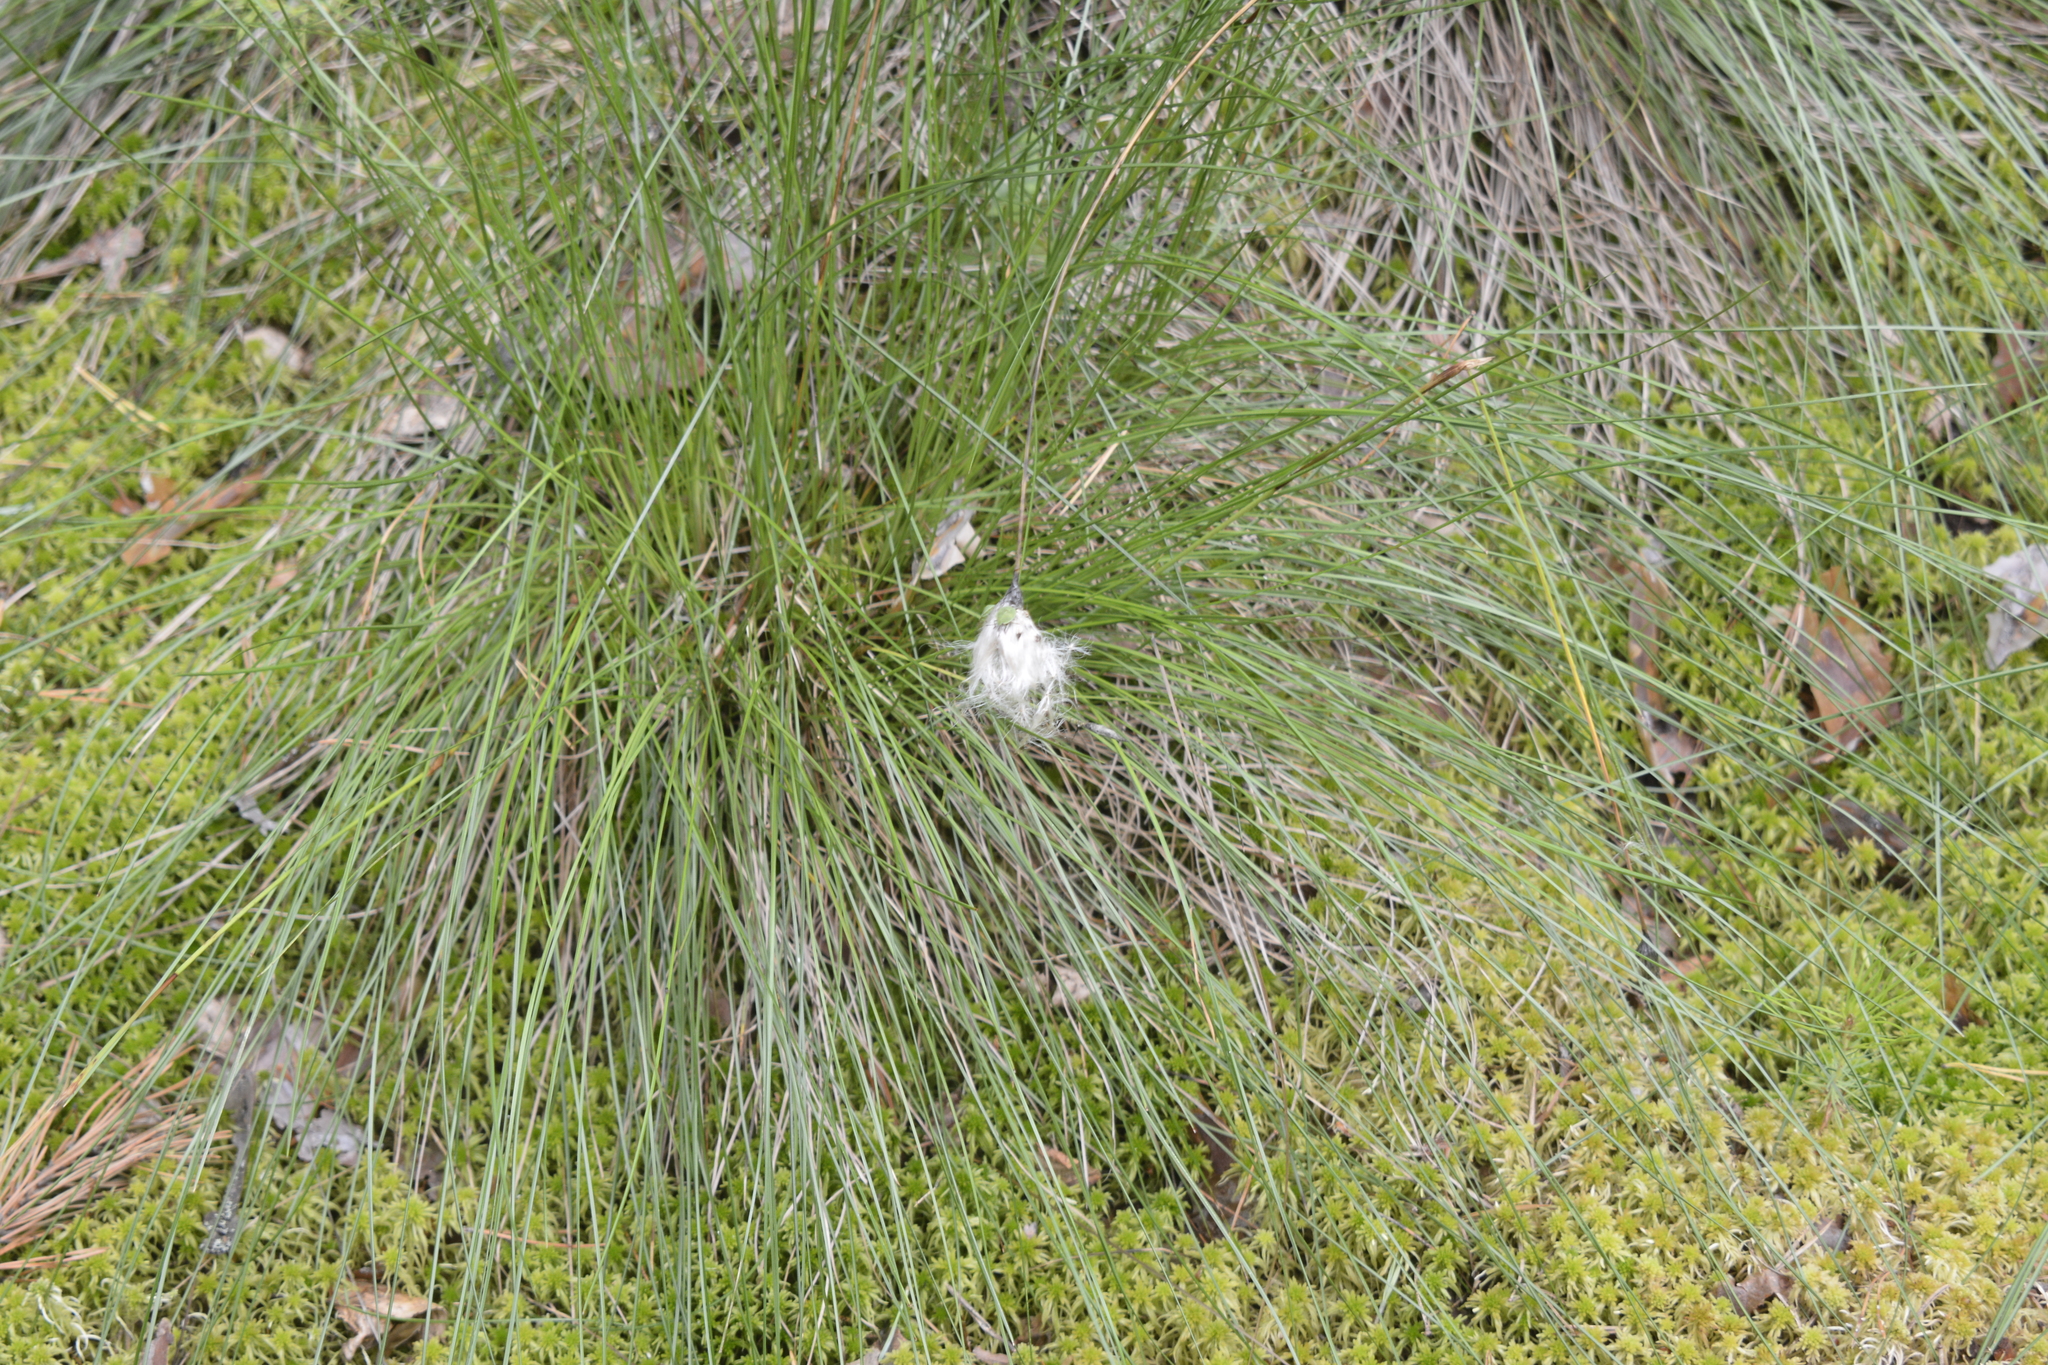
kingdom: Plantae
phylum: Tracheophyta
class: Liliopsida
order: Poales
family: Cyperaceae
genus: Eriophorum
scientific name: Eriophorum vaginatum
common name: Hare's-tail cottongrass
